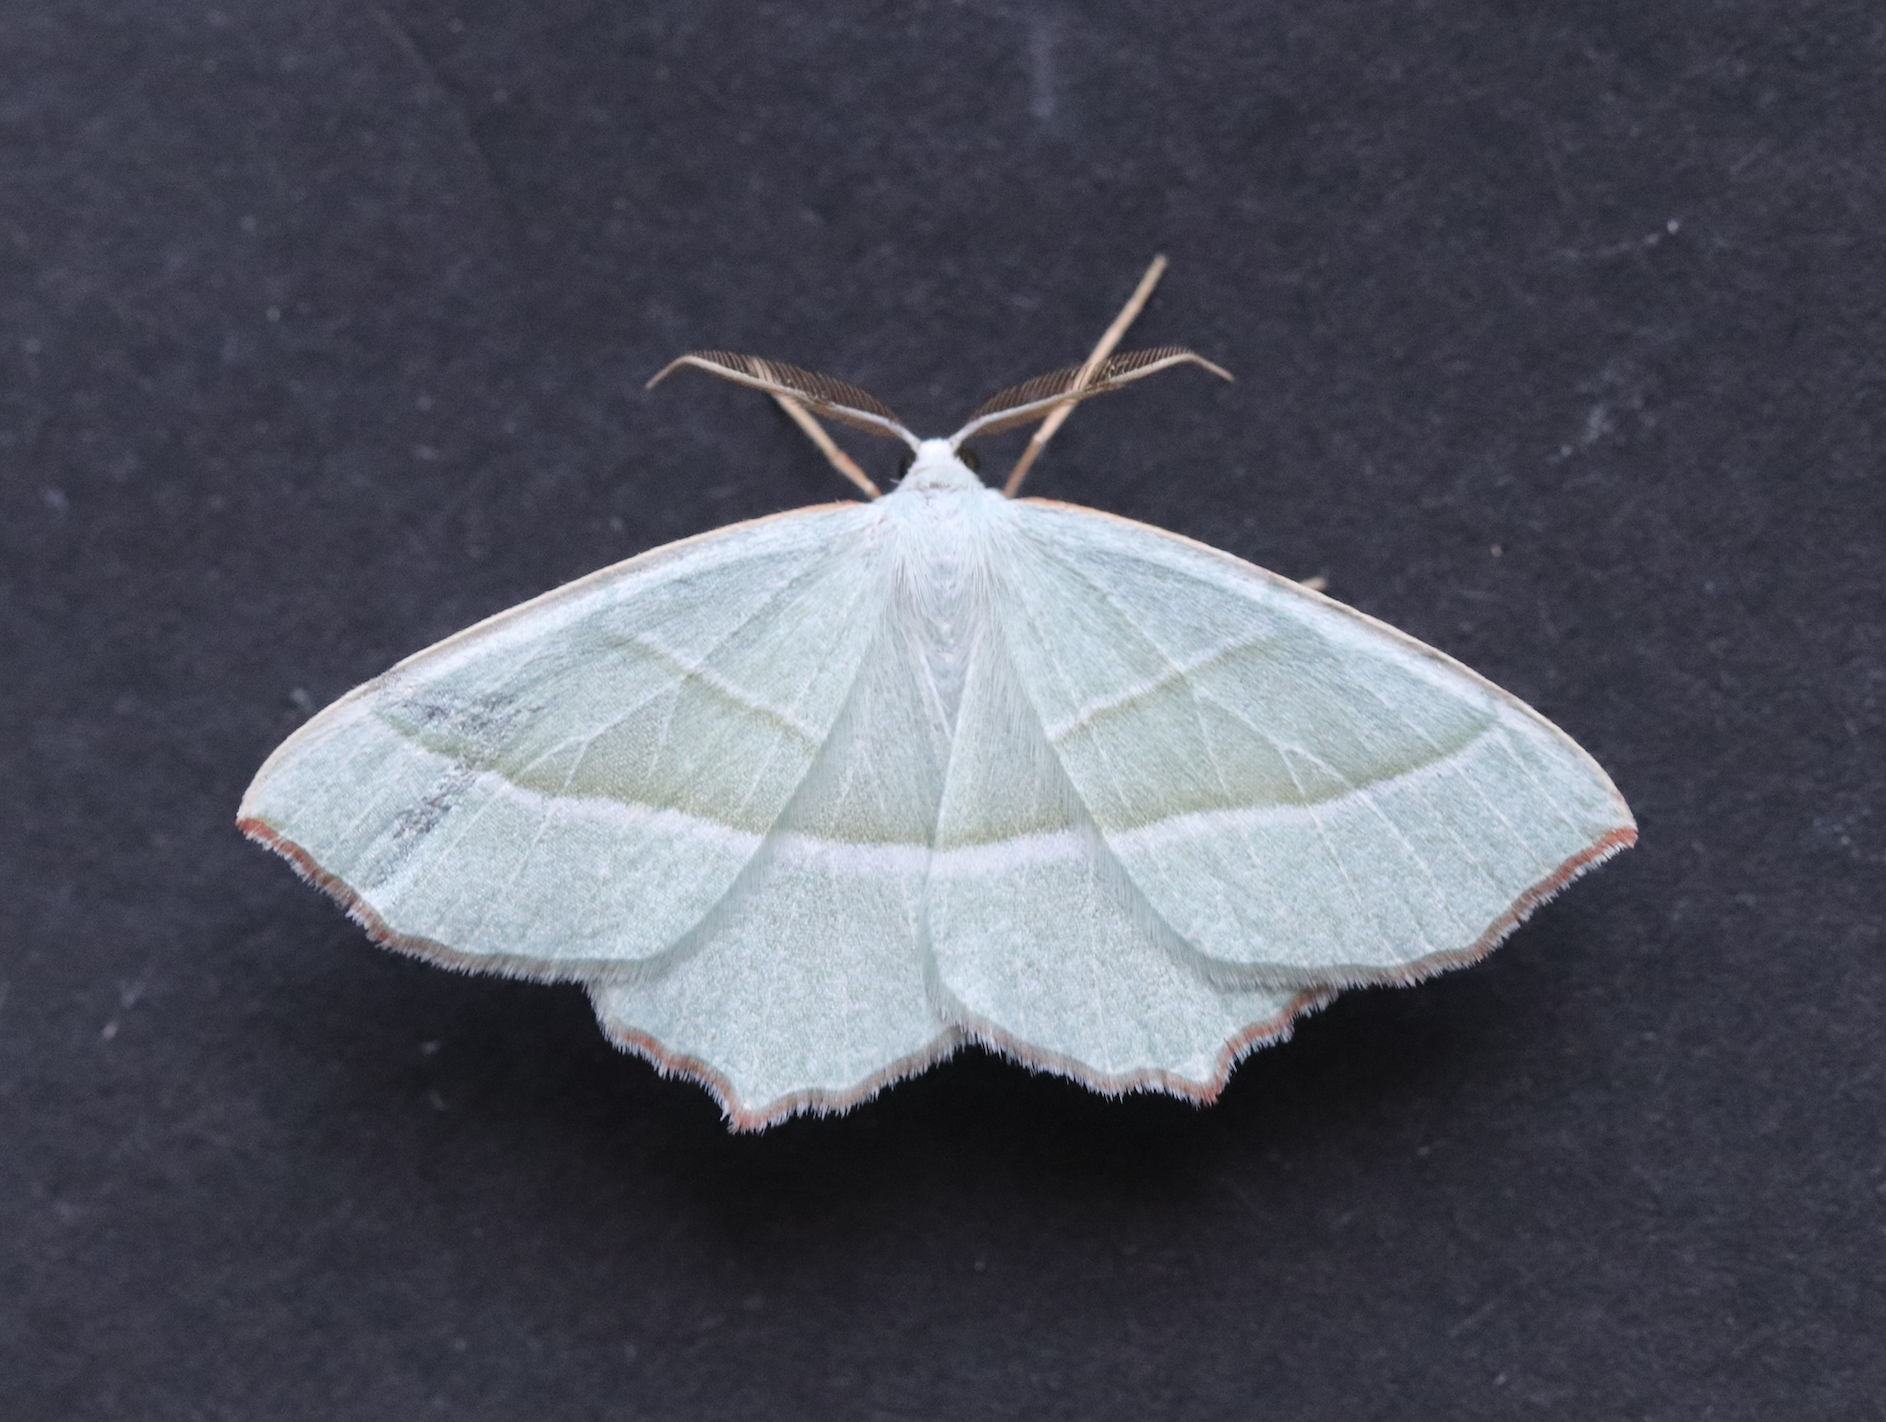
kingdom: Animalia
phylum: Arthropoda
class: Insecta
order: Lepidoptera
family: Geometridae
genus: Campaea
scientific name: Campaea margaritaria
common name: Light emerald
